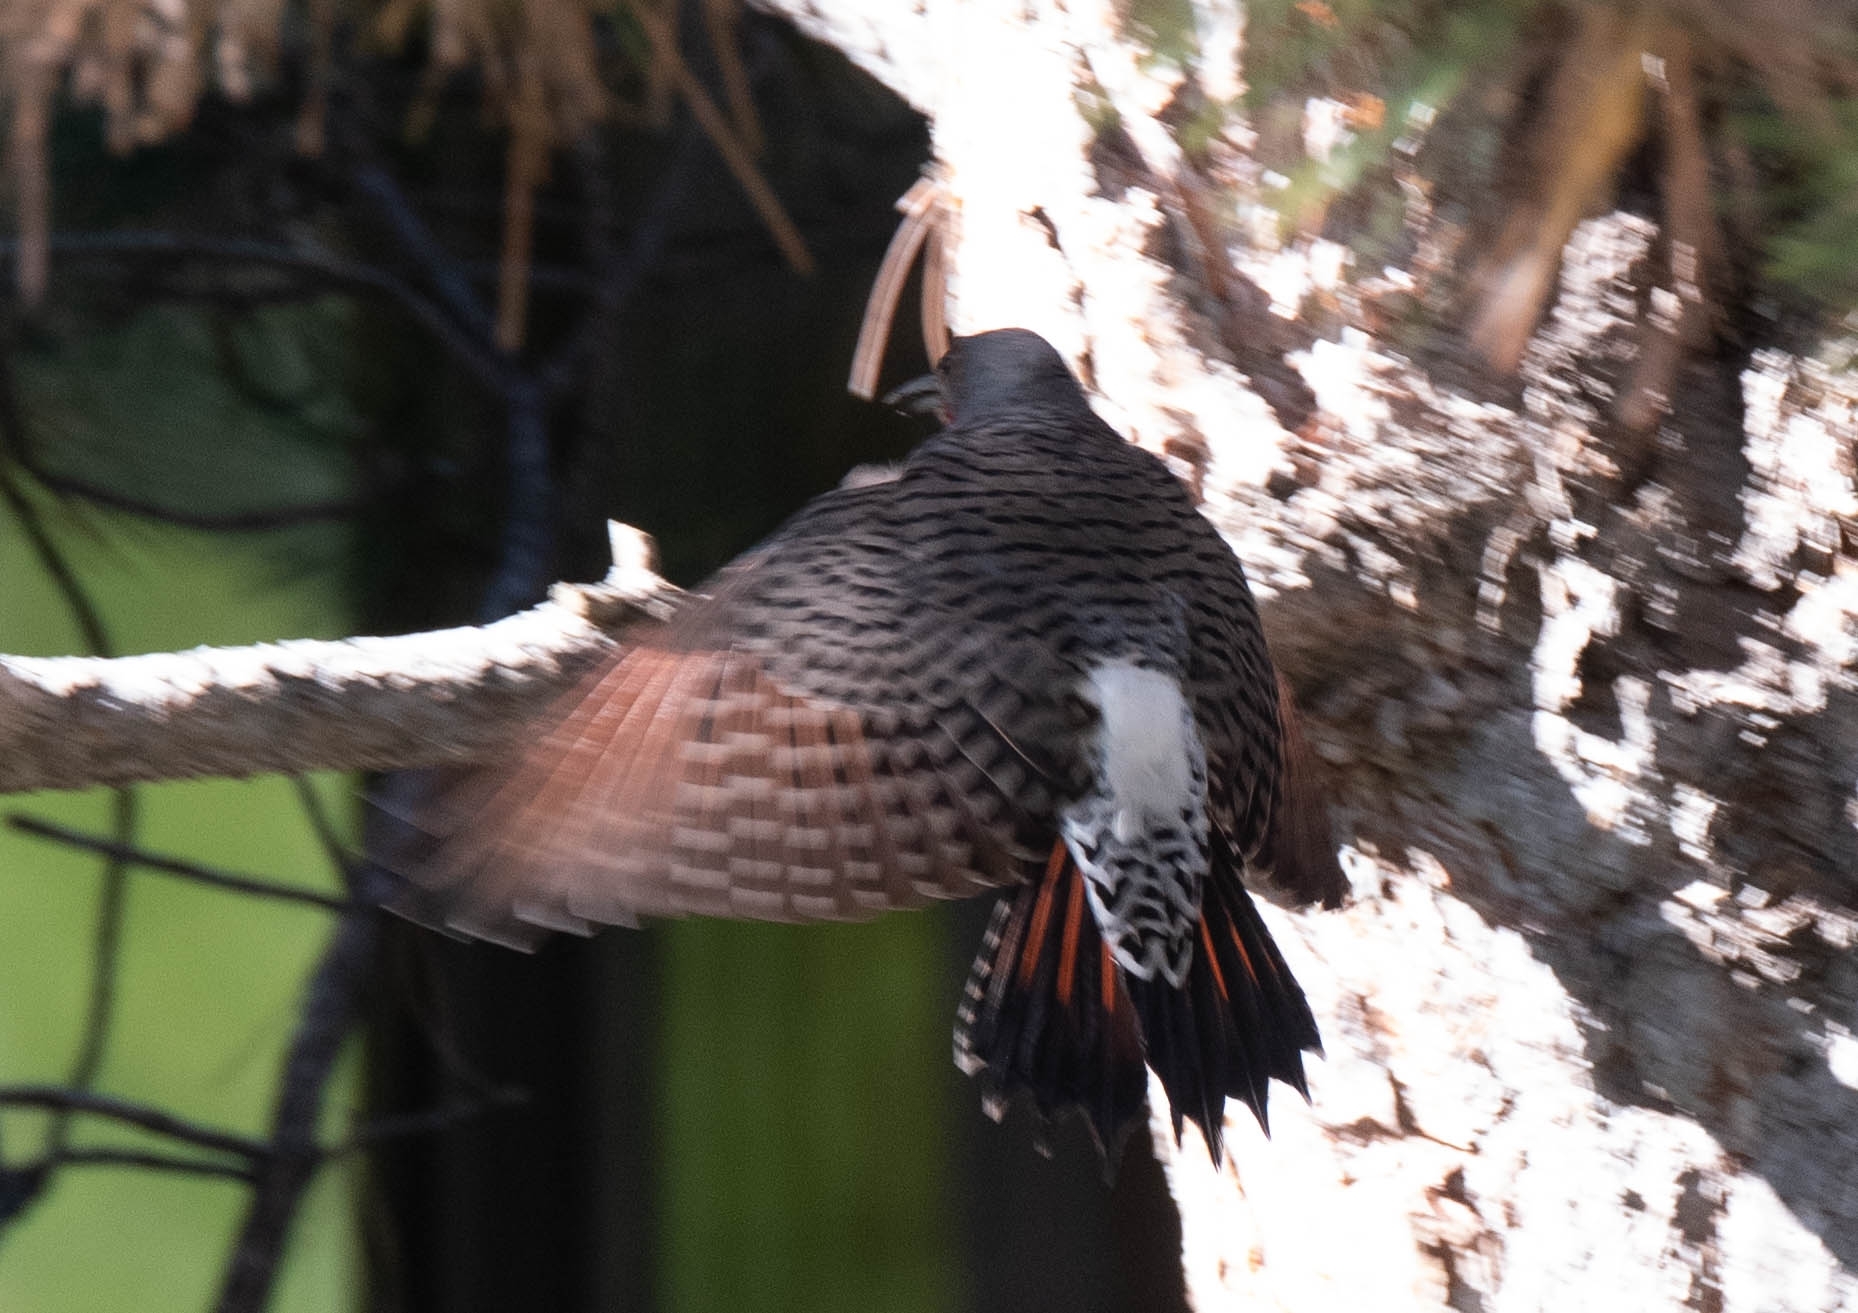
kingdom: Animalia
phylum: Chordata
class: Aves
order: Piciformes
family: Picidae
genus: Colaptes
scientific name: Colaptes auratus
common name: Northern flicker
